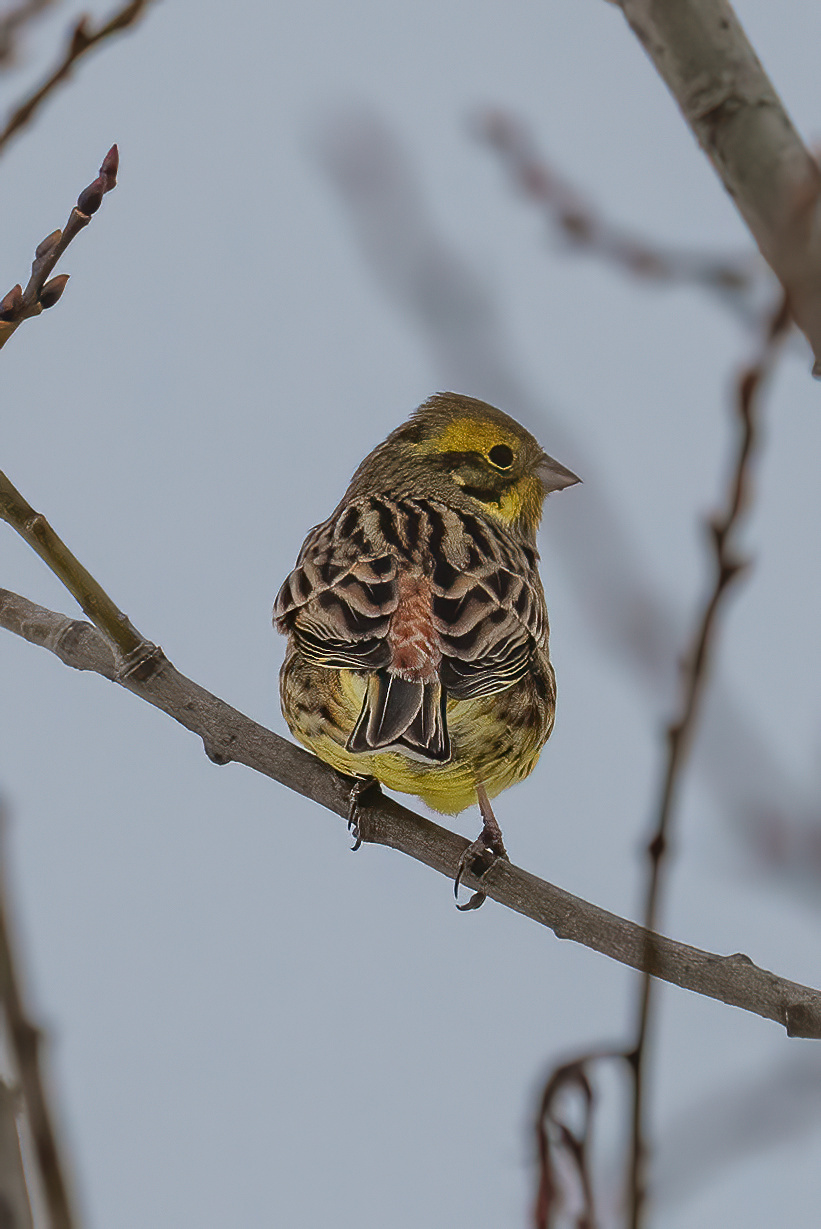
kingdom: Animalia
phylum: Chordata
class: Aves
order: Passeriformes
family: Emberizidae
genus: Emberiza
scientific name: Emberiza citrinella
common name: Yellowhammer
